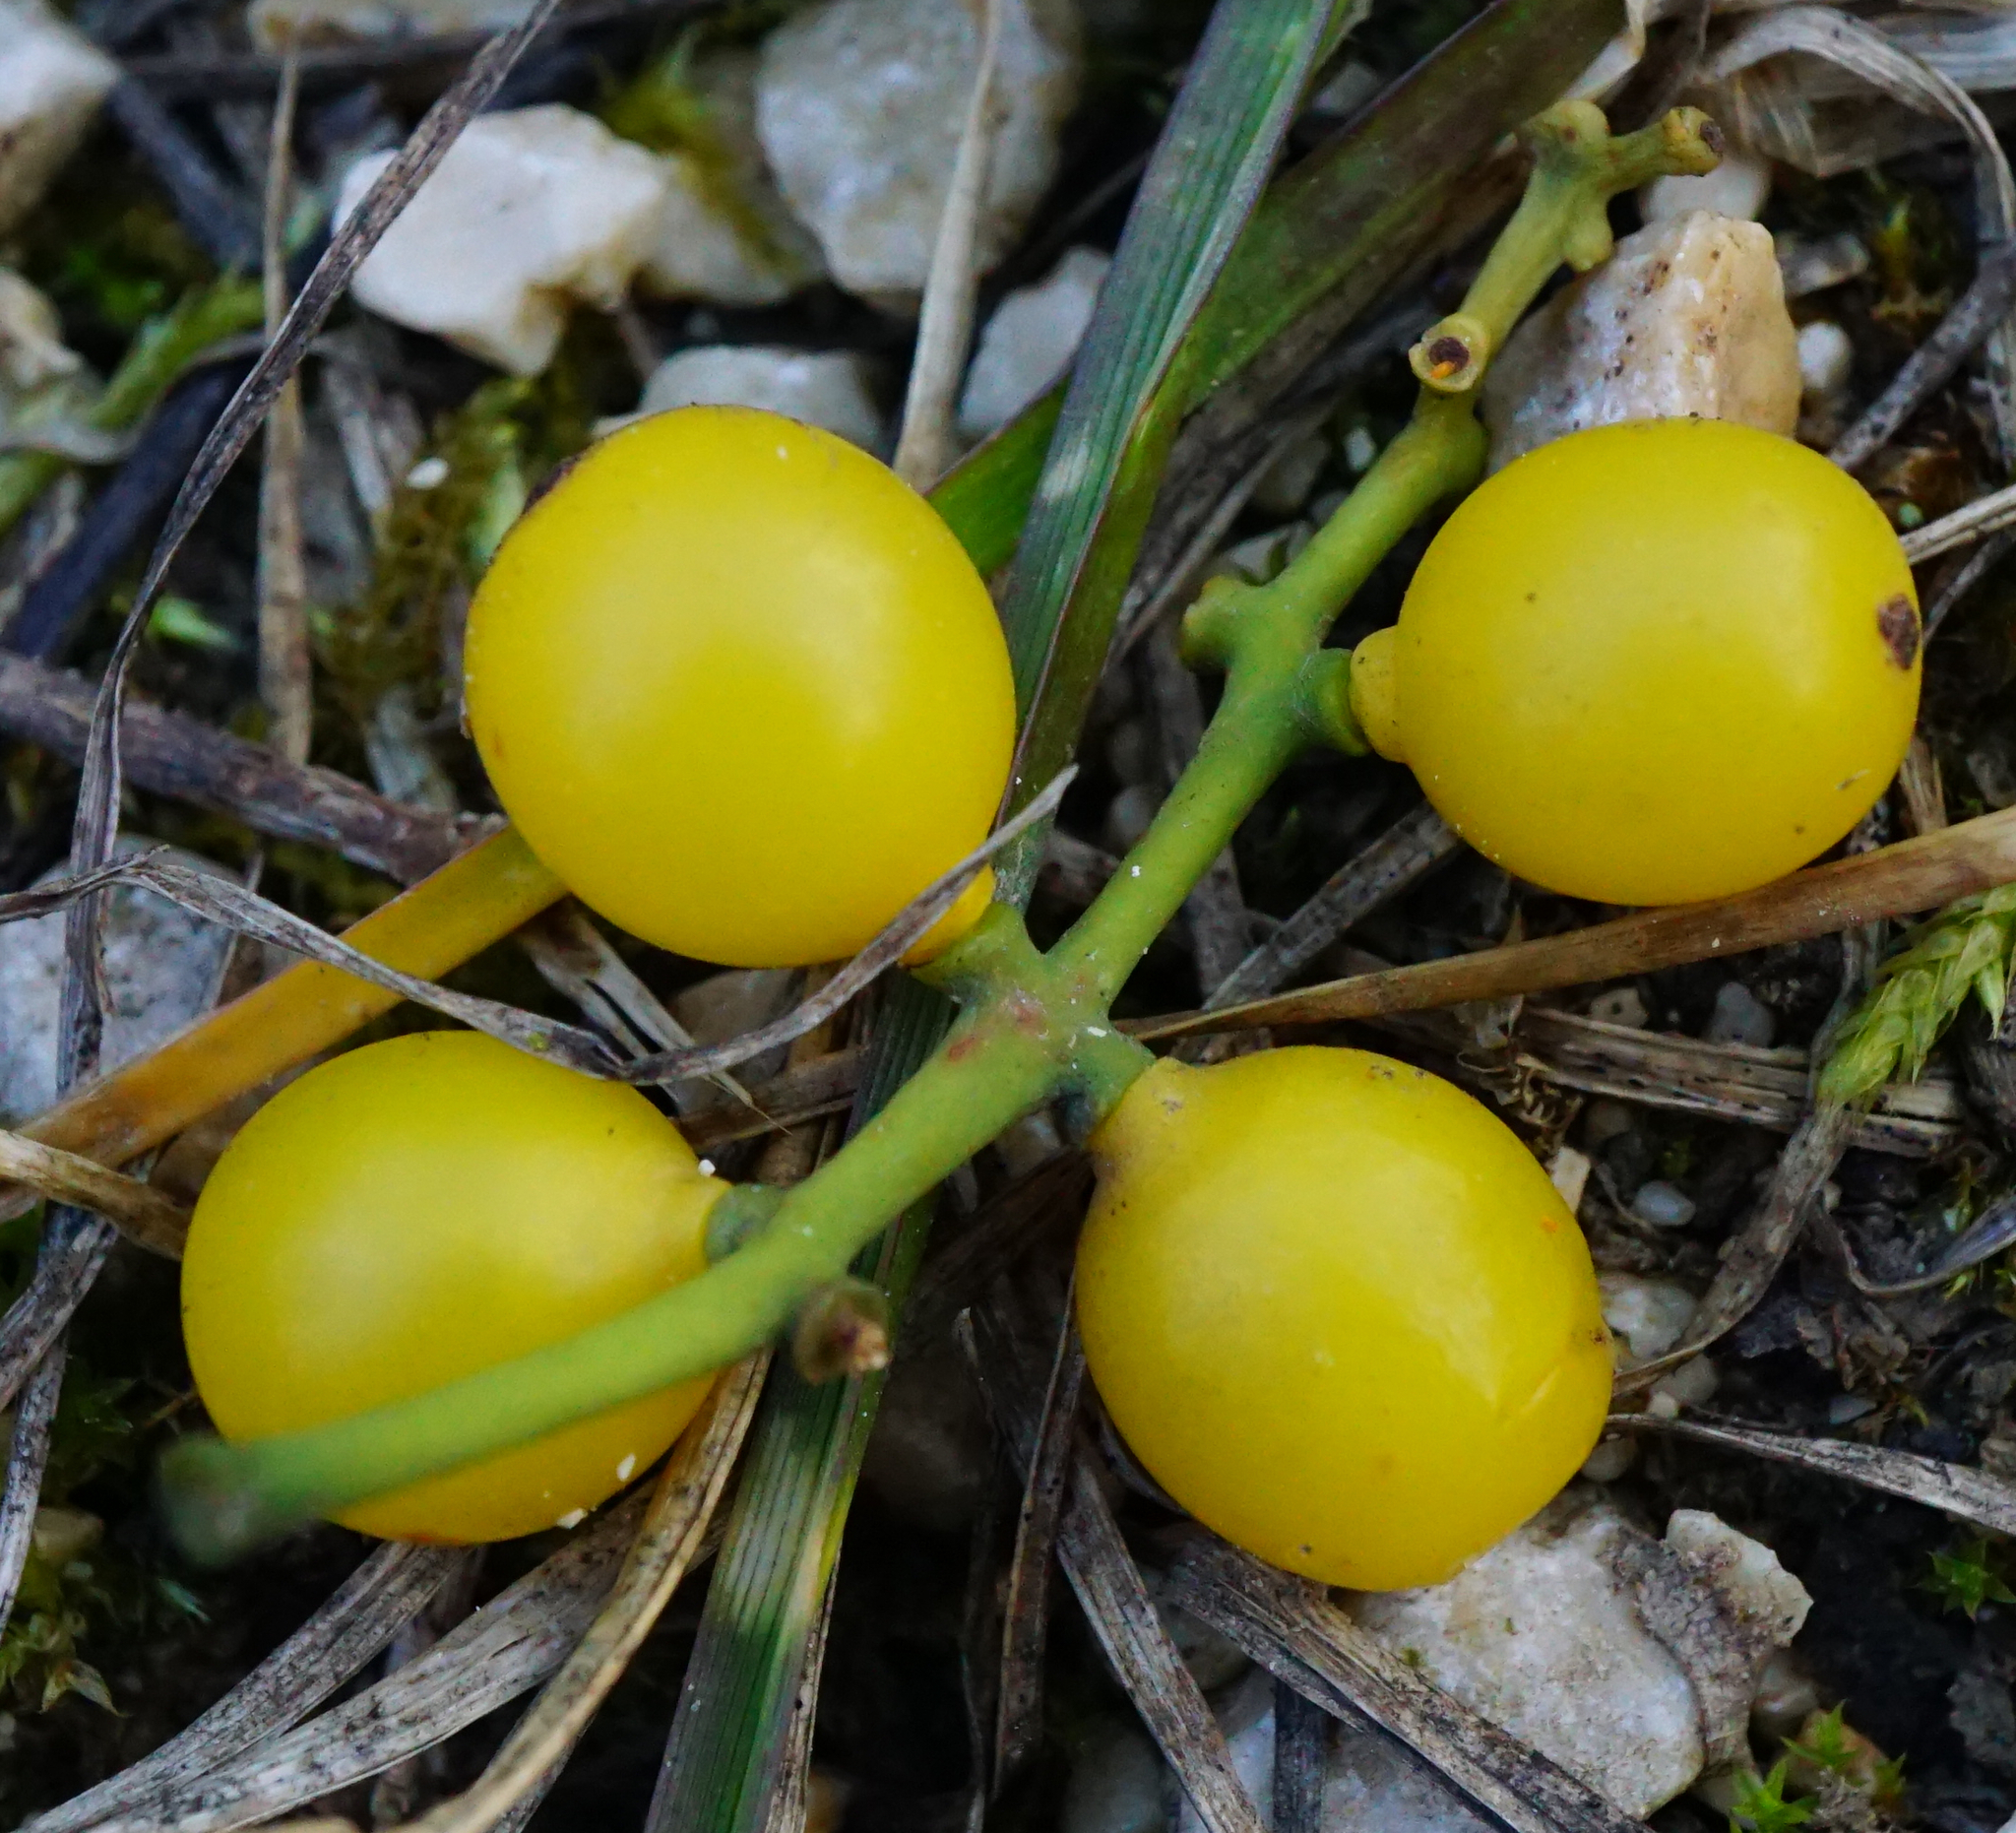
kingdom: Plantae
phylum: Tracheophyta
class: Magnoliopsida
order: Santalales
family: Loranthaceae
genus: Loranthus
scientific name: Loranthus europaeus
